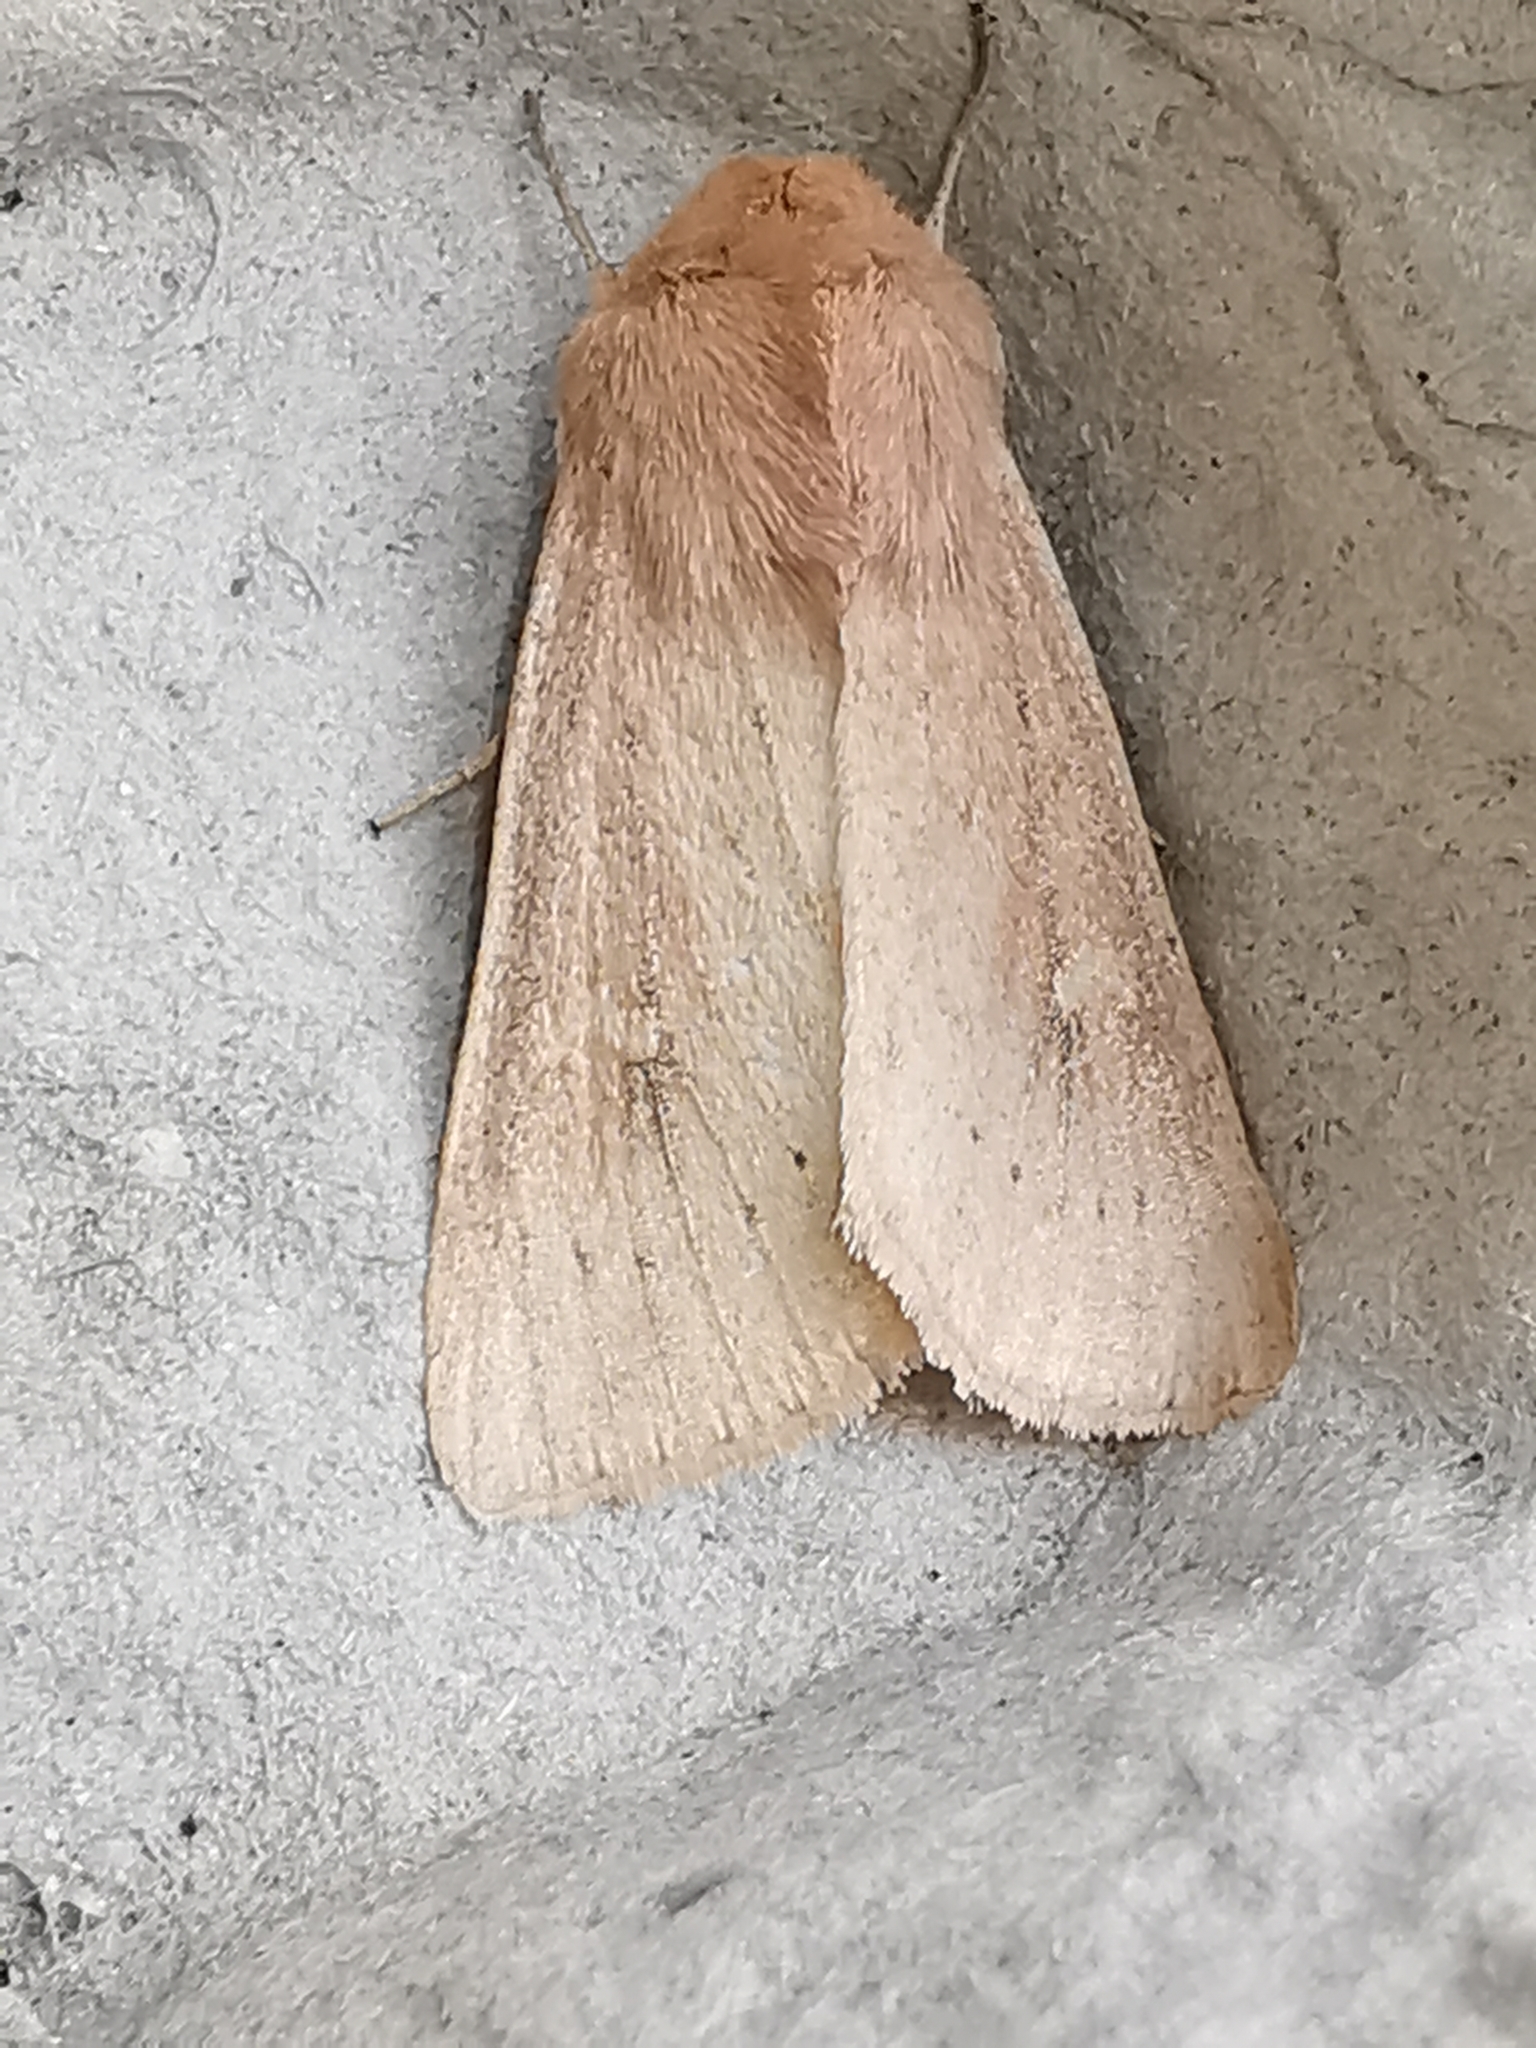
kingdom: Animalia
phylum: Arthropoda
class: Insecta
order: Lepidoptera
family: Noctuidae
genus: Mythimna
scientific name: Mythimna ferrago
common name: Clay
